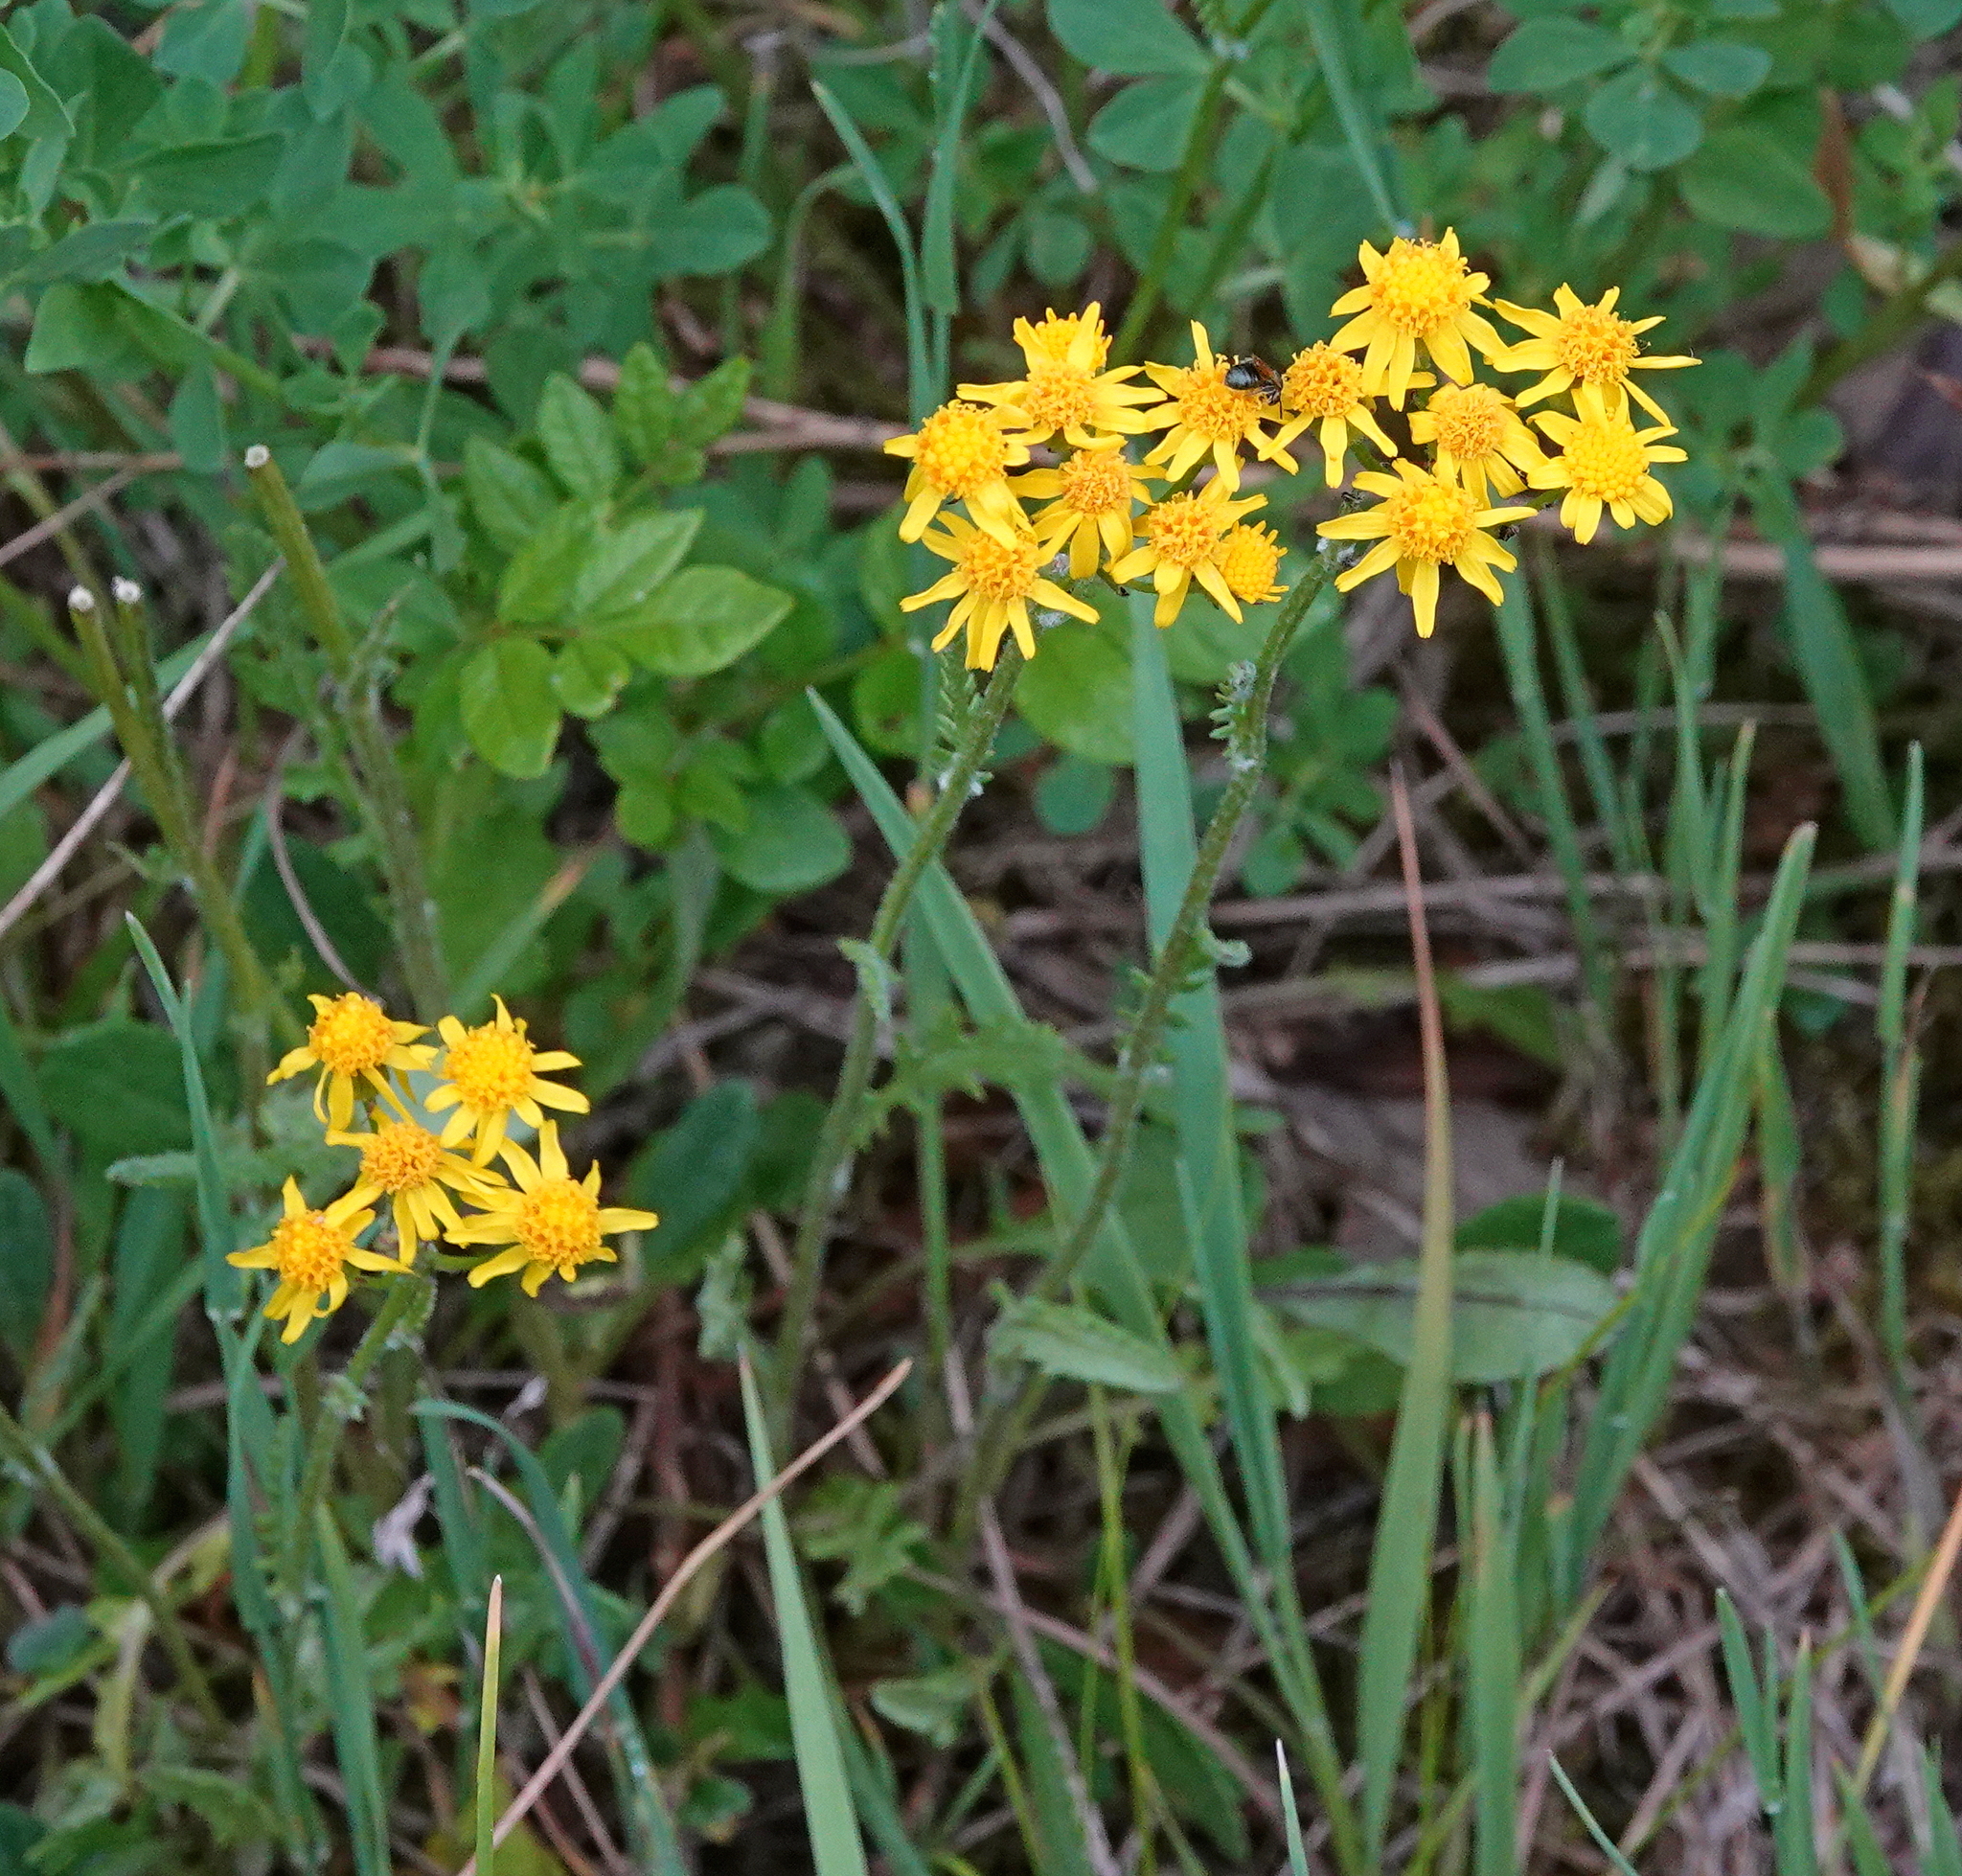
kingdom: Plantae
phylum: Tracheophyta
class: Magnoliopsida
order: Asterales
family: Asteraceae
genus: Packera
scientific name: Packera paupercula
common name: Balsam groundsel
